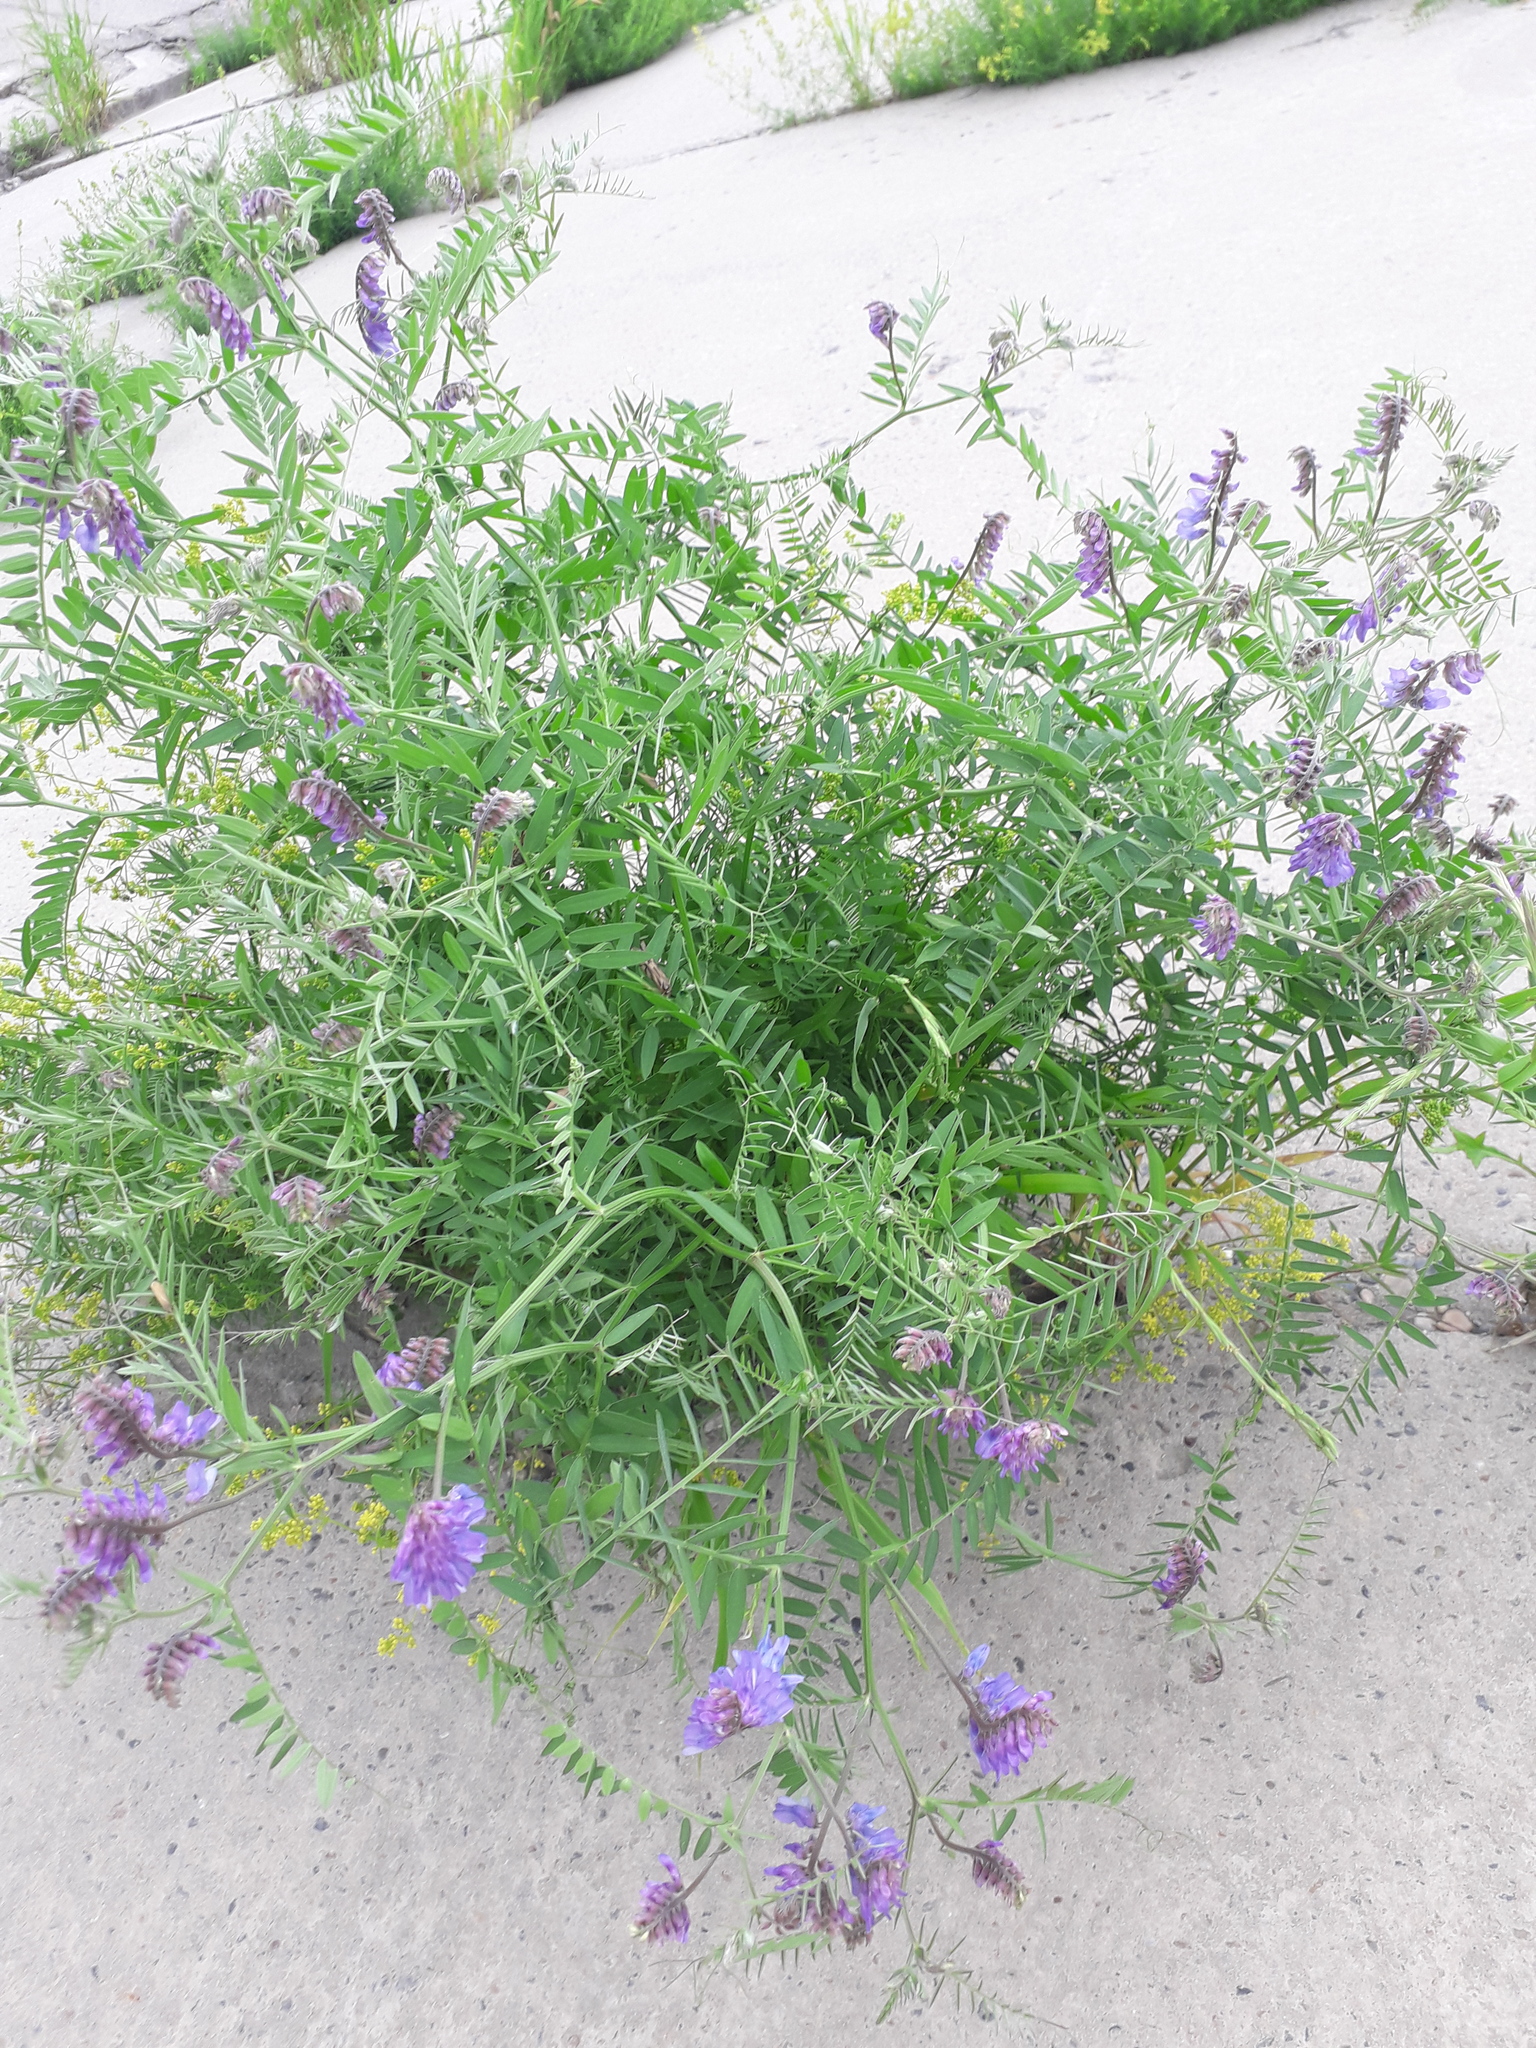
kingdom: Plantae
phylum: Tracheophyta
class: Magnoliopsida
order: Fabales
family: Fabaceae
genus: Vicia
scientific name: Vicia cracca
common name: Bird vetch
